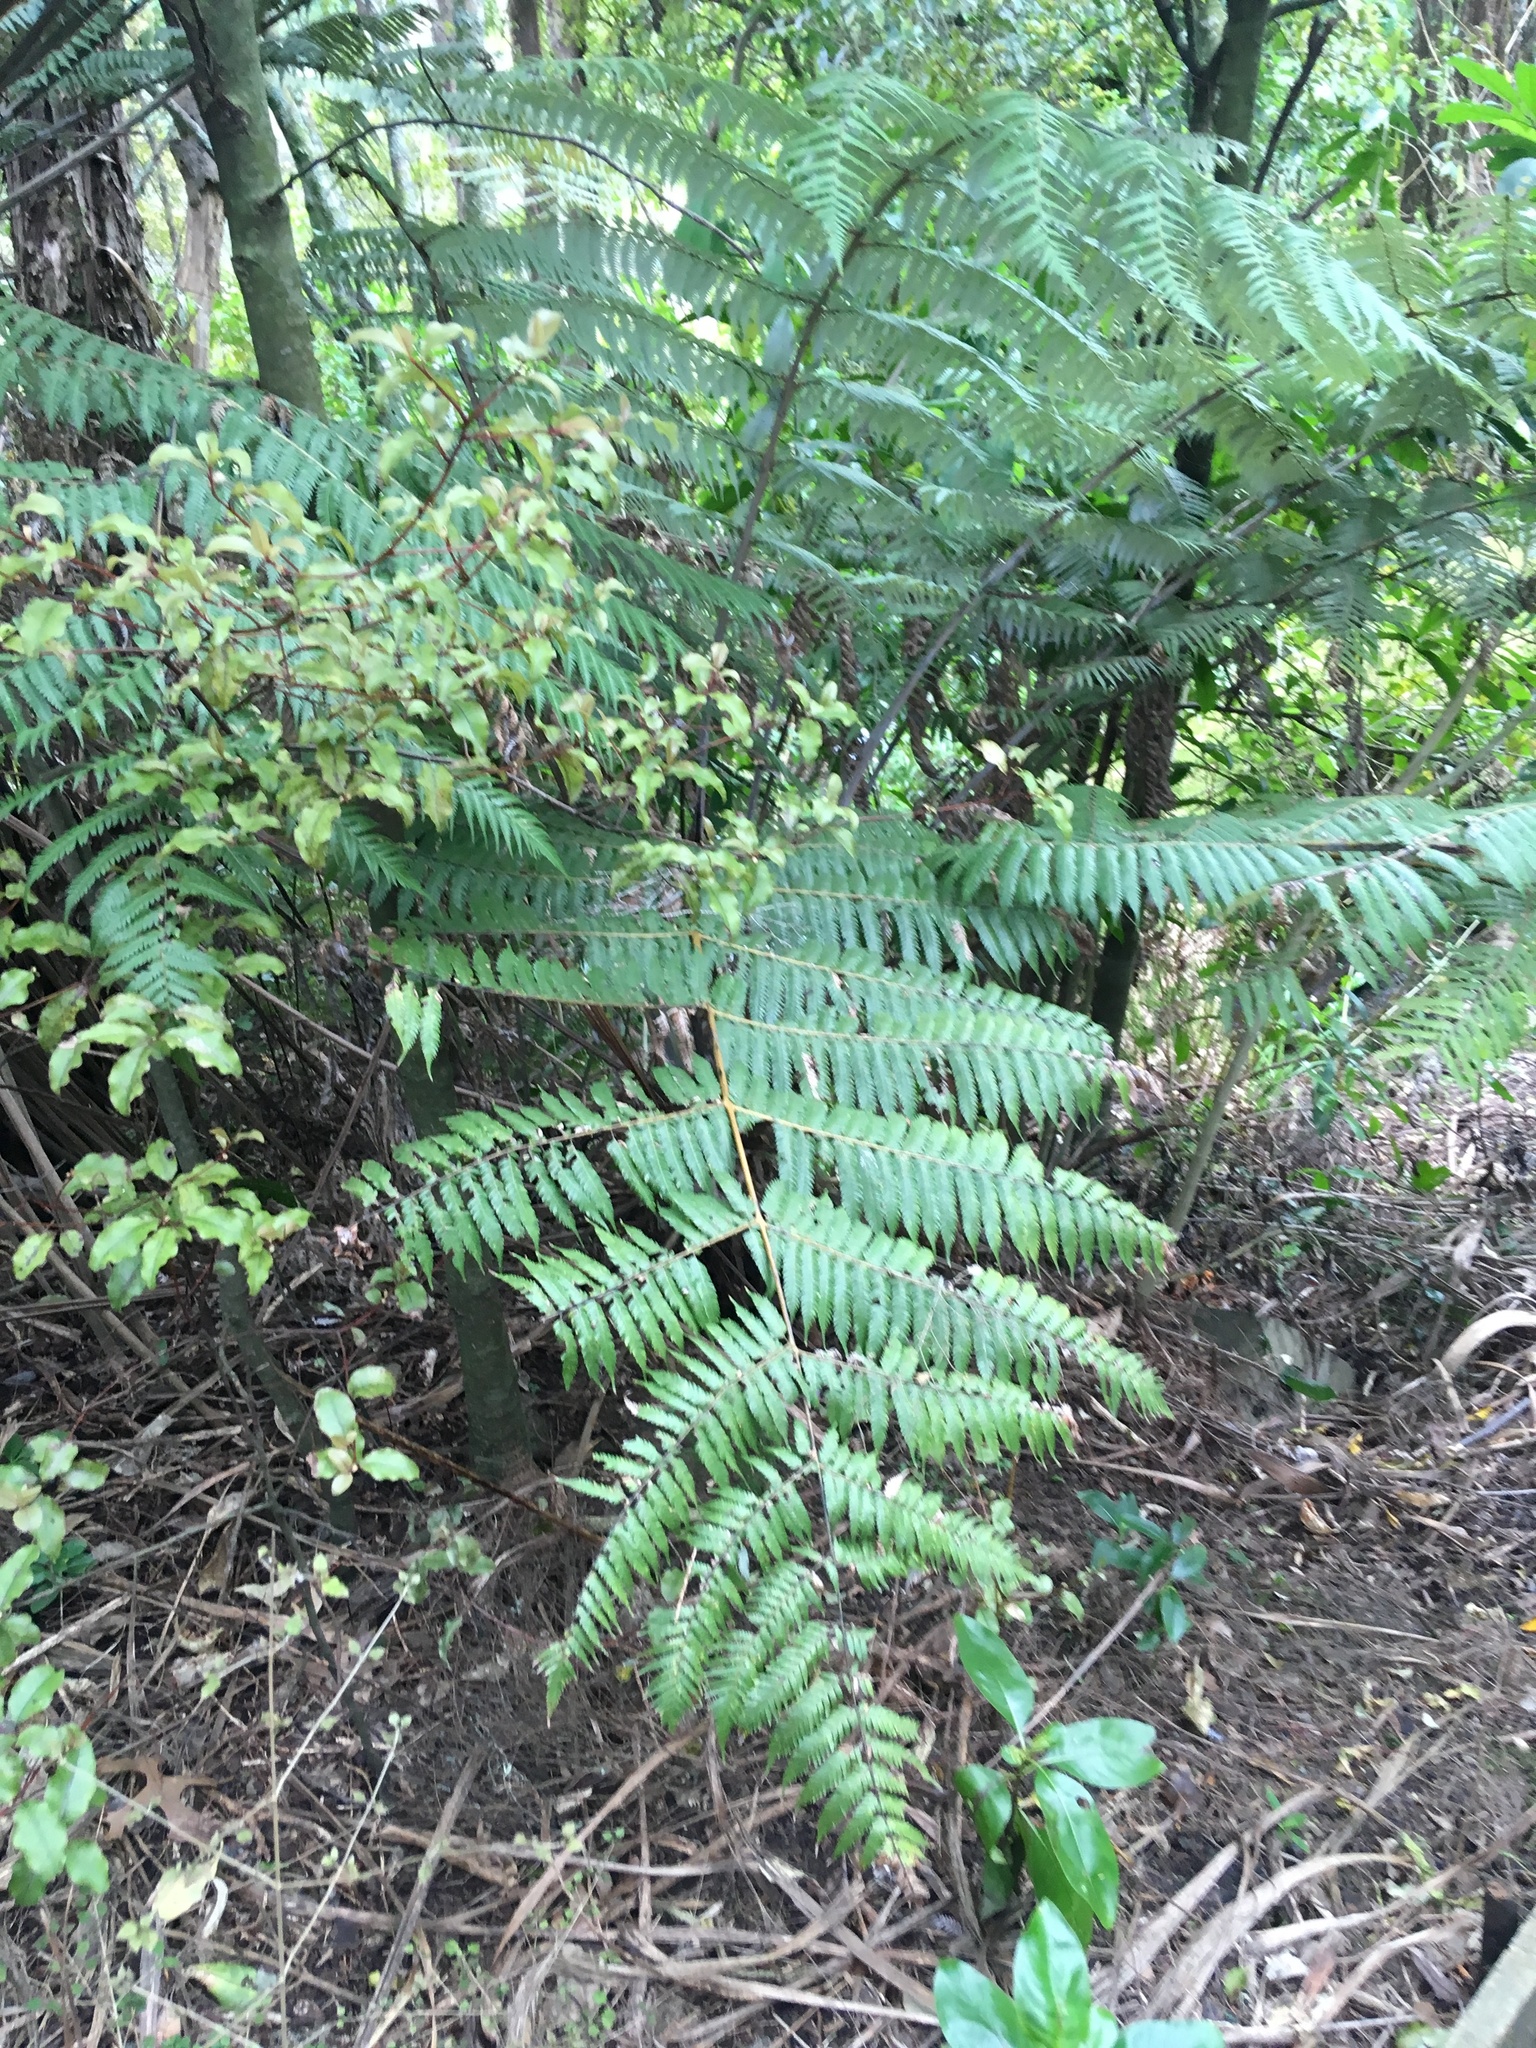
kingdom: Plantae
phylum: Tracheophyta
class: Polypodiopsida
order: Cyatheales
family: Cyatheaceae
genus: Alsophila
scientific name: Alsophila dealbata
